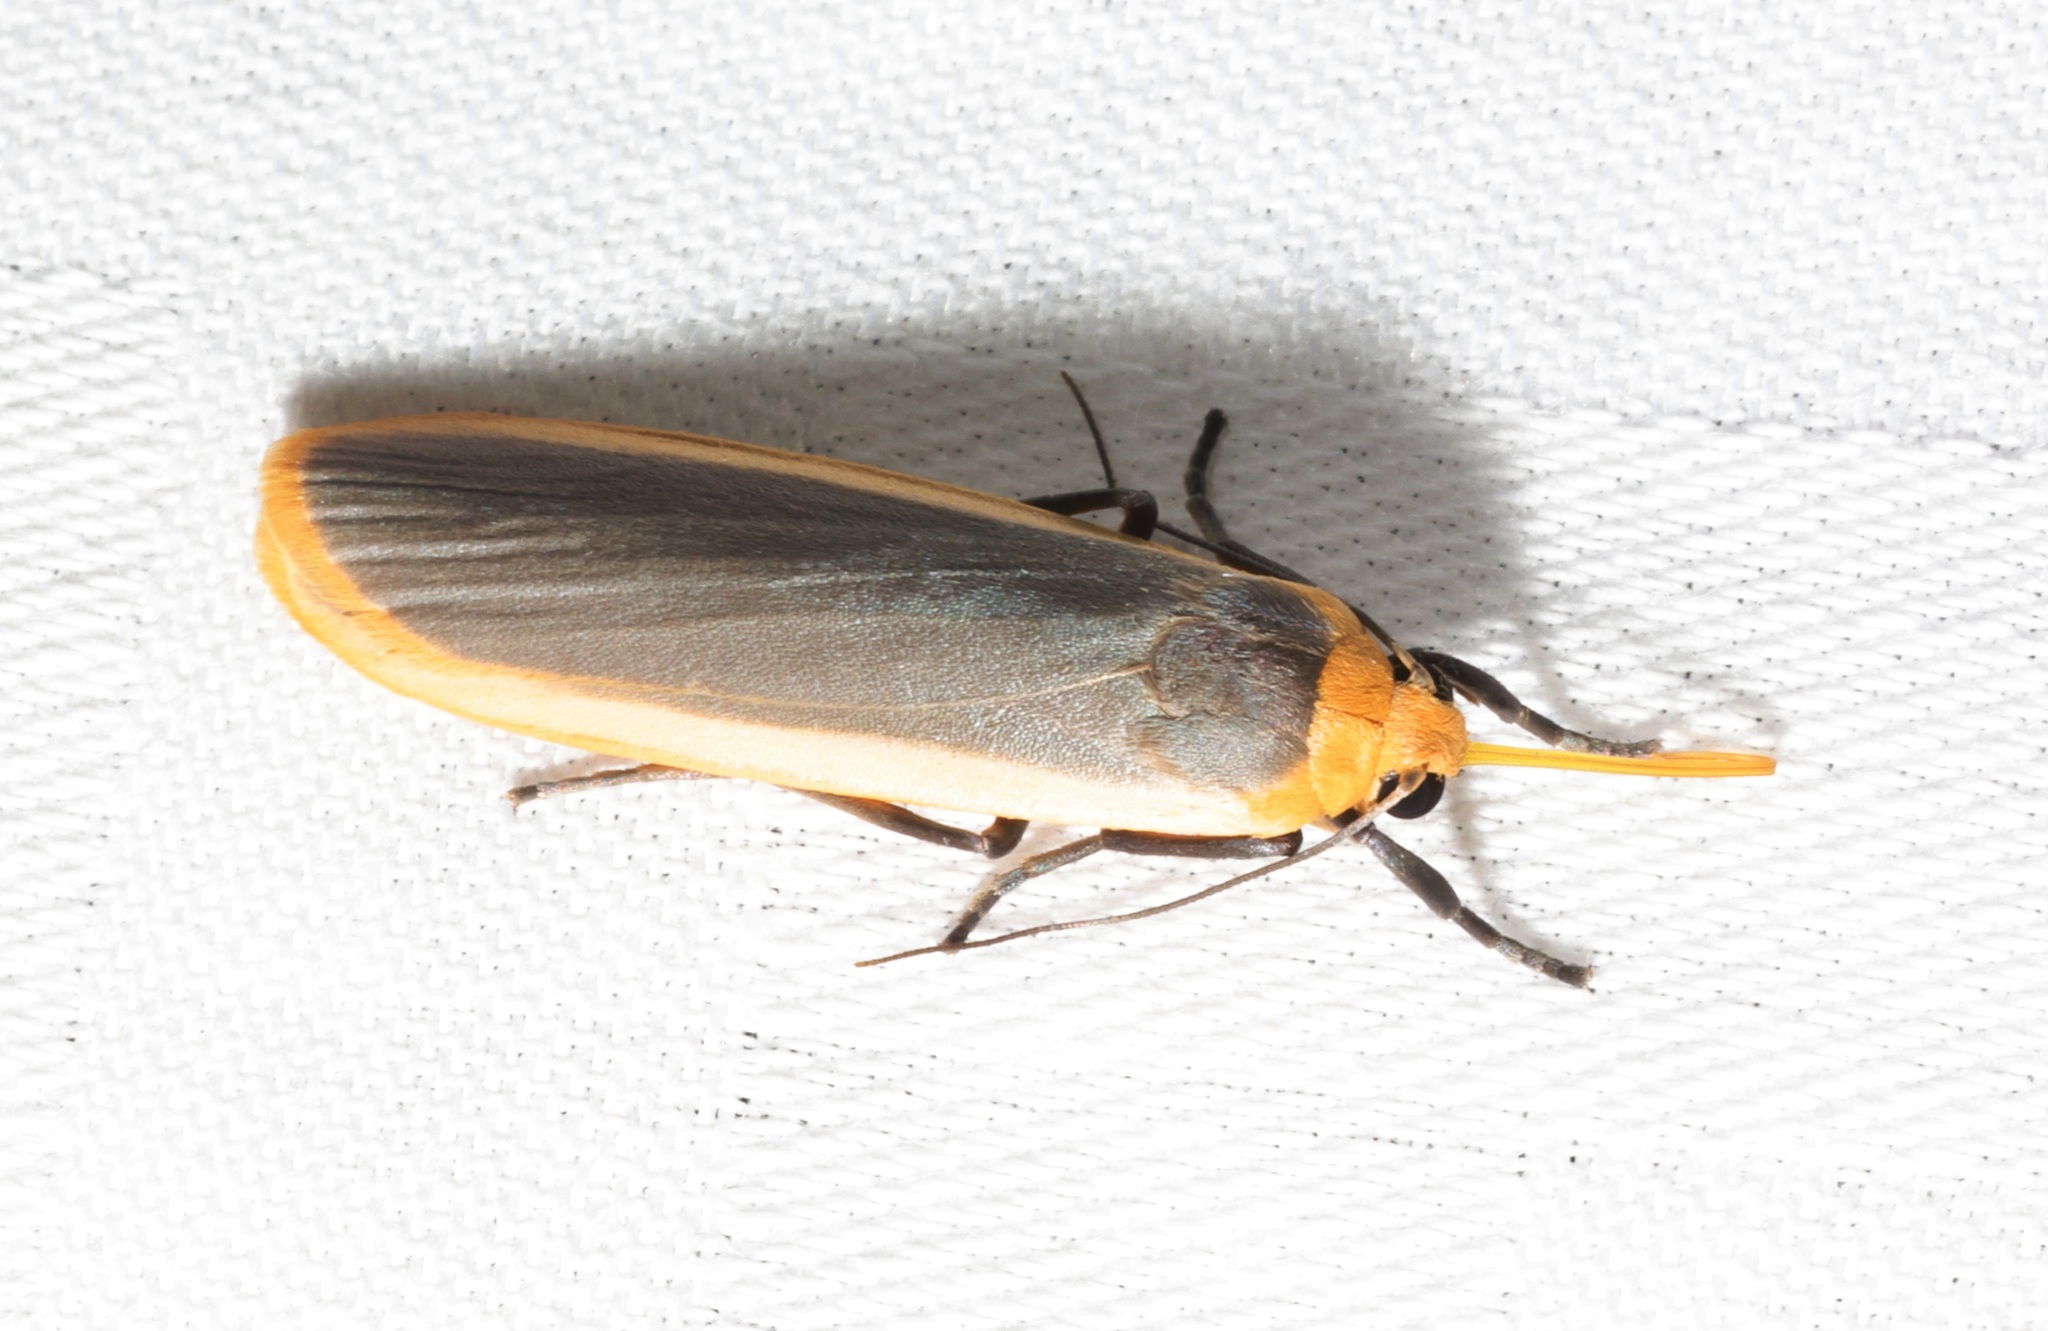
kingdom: Animalia
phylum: Arthropoda
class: Insecta
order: Lepidoptera
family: Erebidae
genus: Brunia
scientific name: Brunia antica
